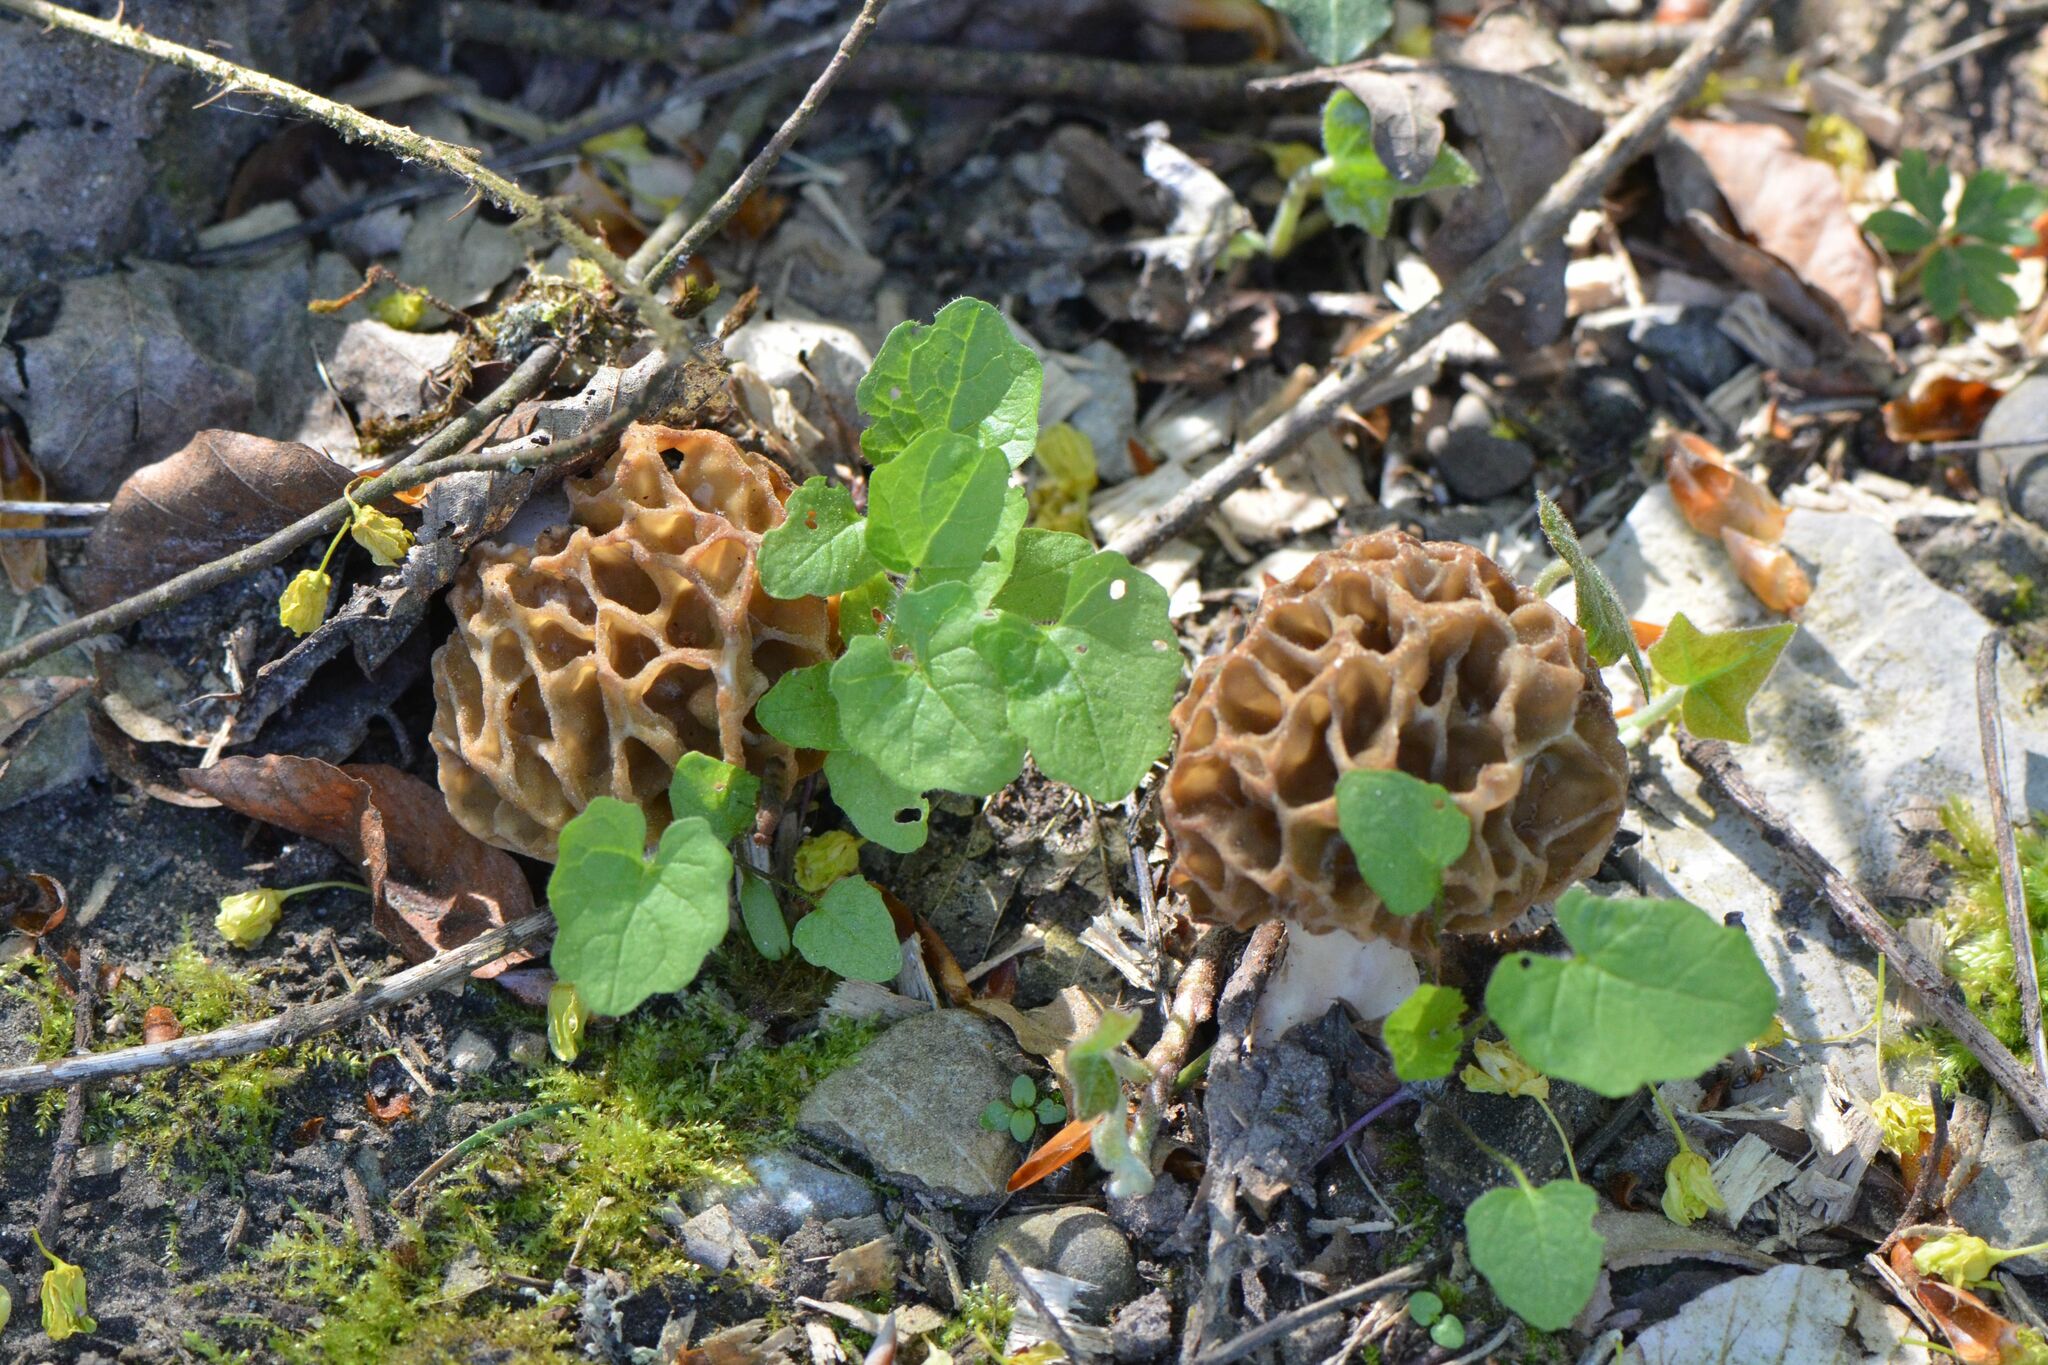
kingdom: Fungi
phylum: Ascomycota
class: Pezizomycetes
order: Pezizales
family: Morchellaceae
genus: Morchella
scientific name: Morchella esculenta
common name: Morel
